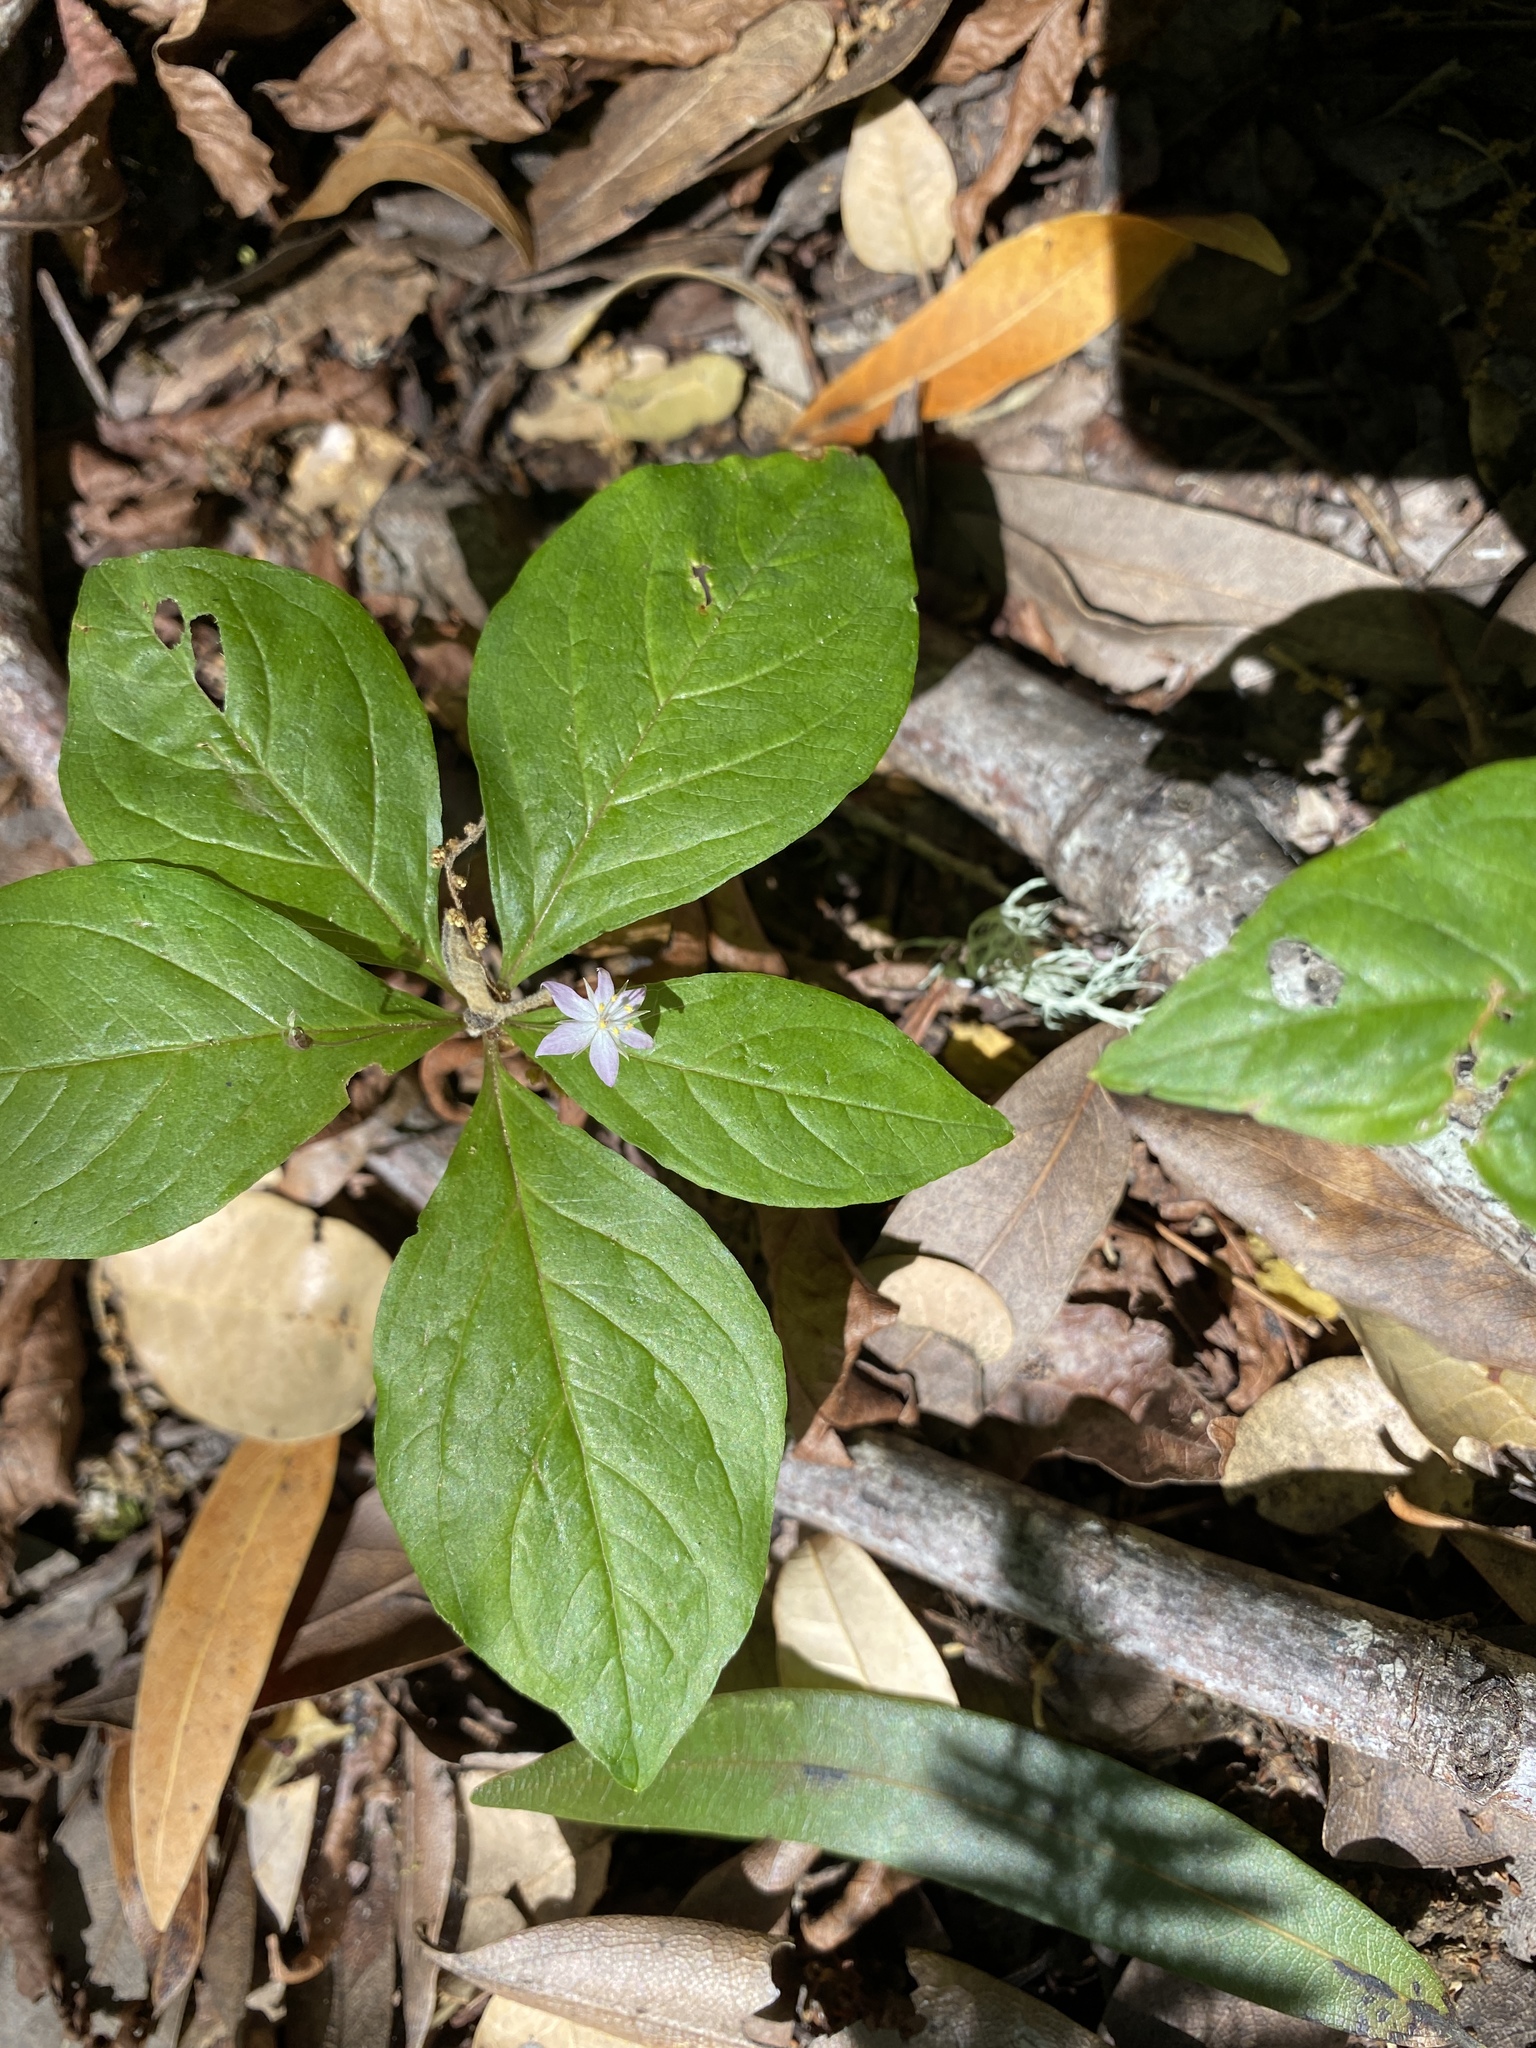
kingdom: Plantae
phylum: Tracheophyta
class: Magnoliopsida
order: Ericales
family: Primulaceae
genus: Lysimachia
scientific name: Lysimachia latifolia
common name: Pacific starflower
